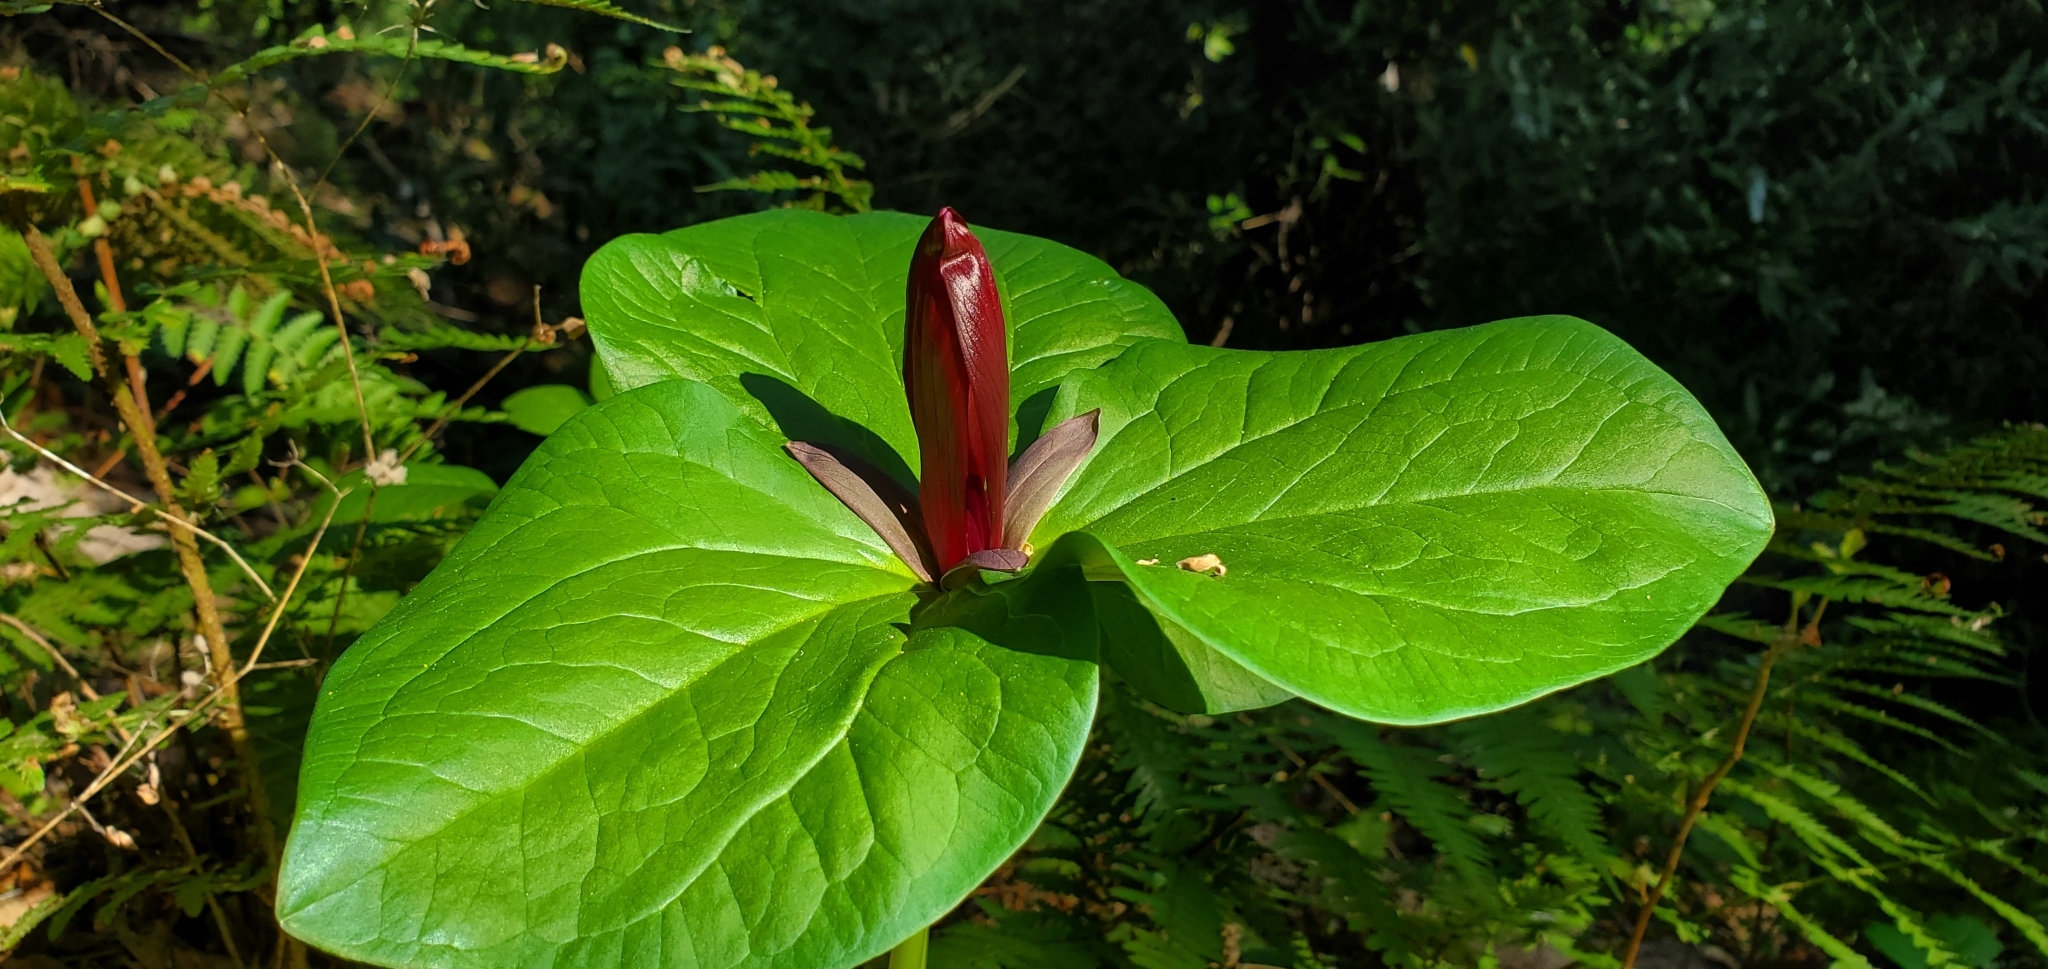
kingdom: Plantae
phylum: Tracheophyta
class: Liliopsida
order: Liliales
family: Melanthiaceae
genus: Trillium
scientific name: Trillium chloropetalum
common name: Giant trillium
